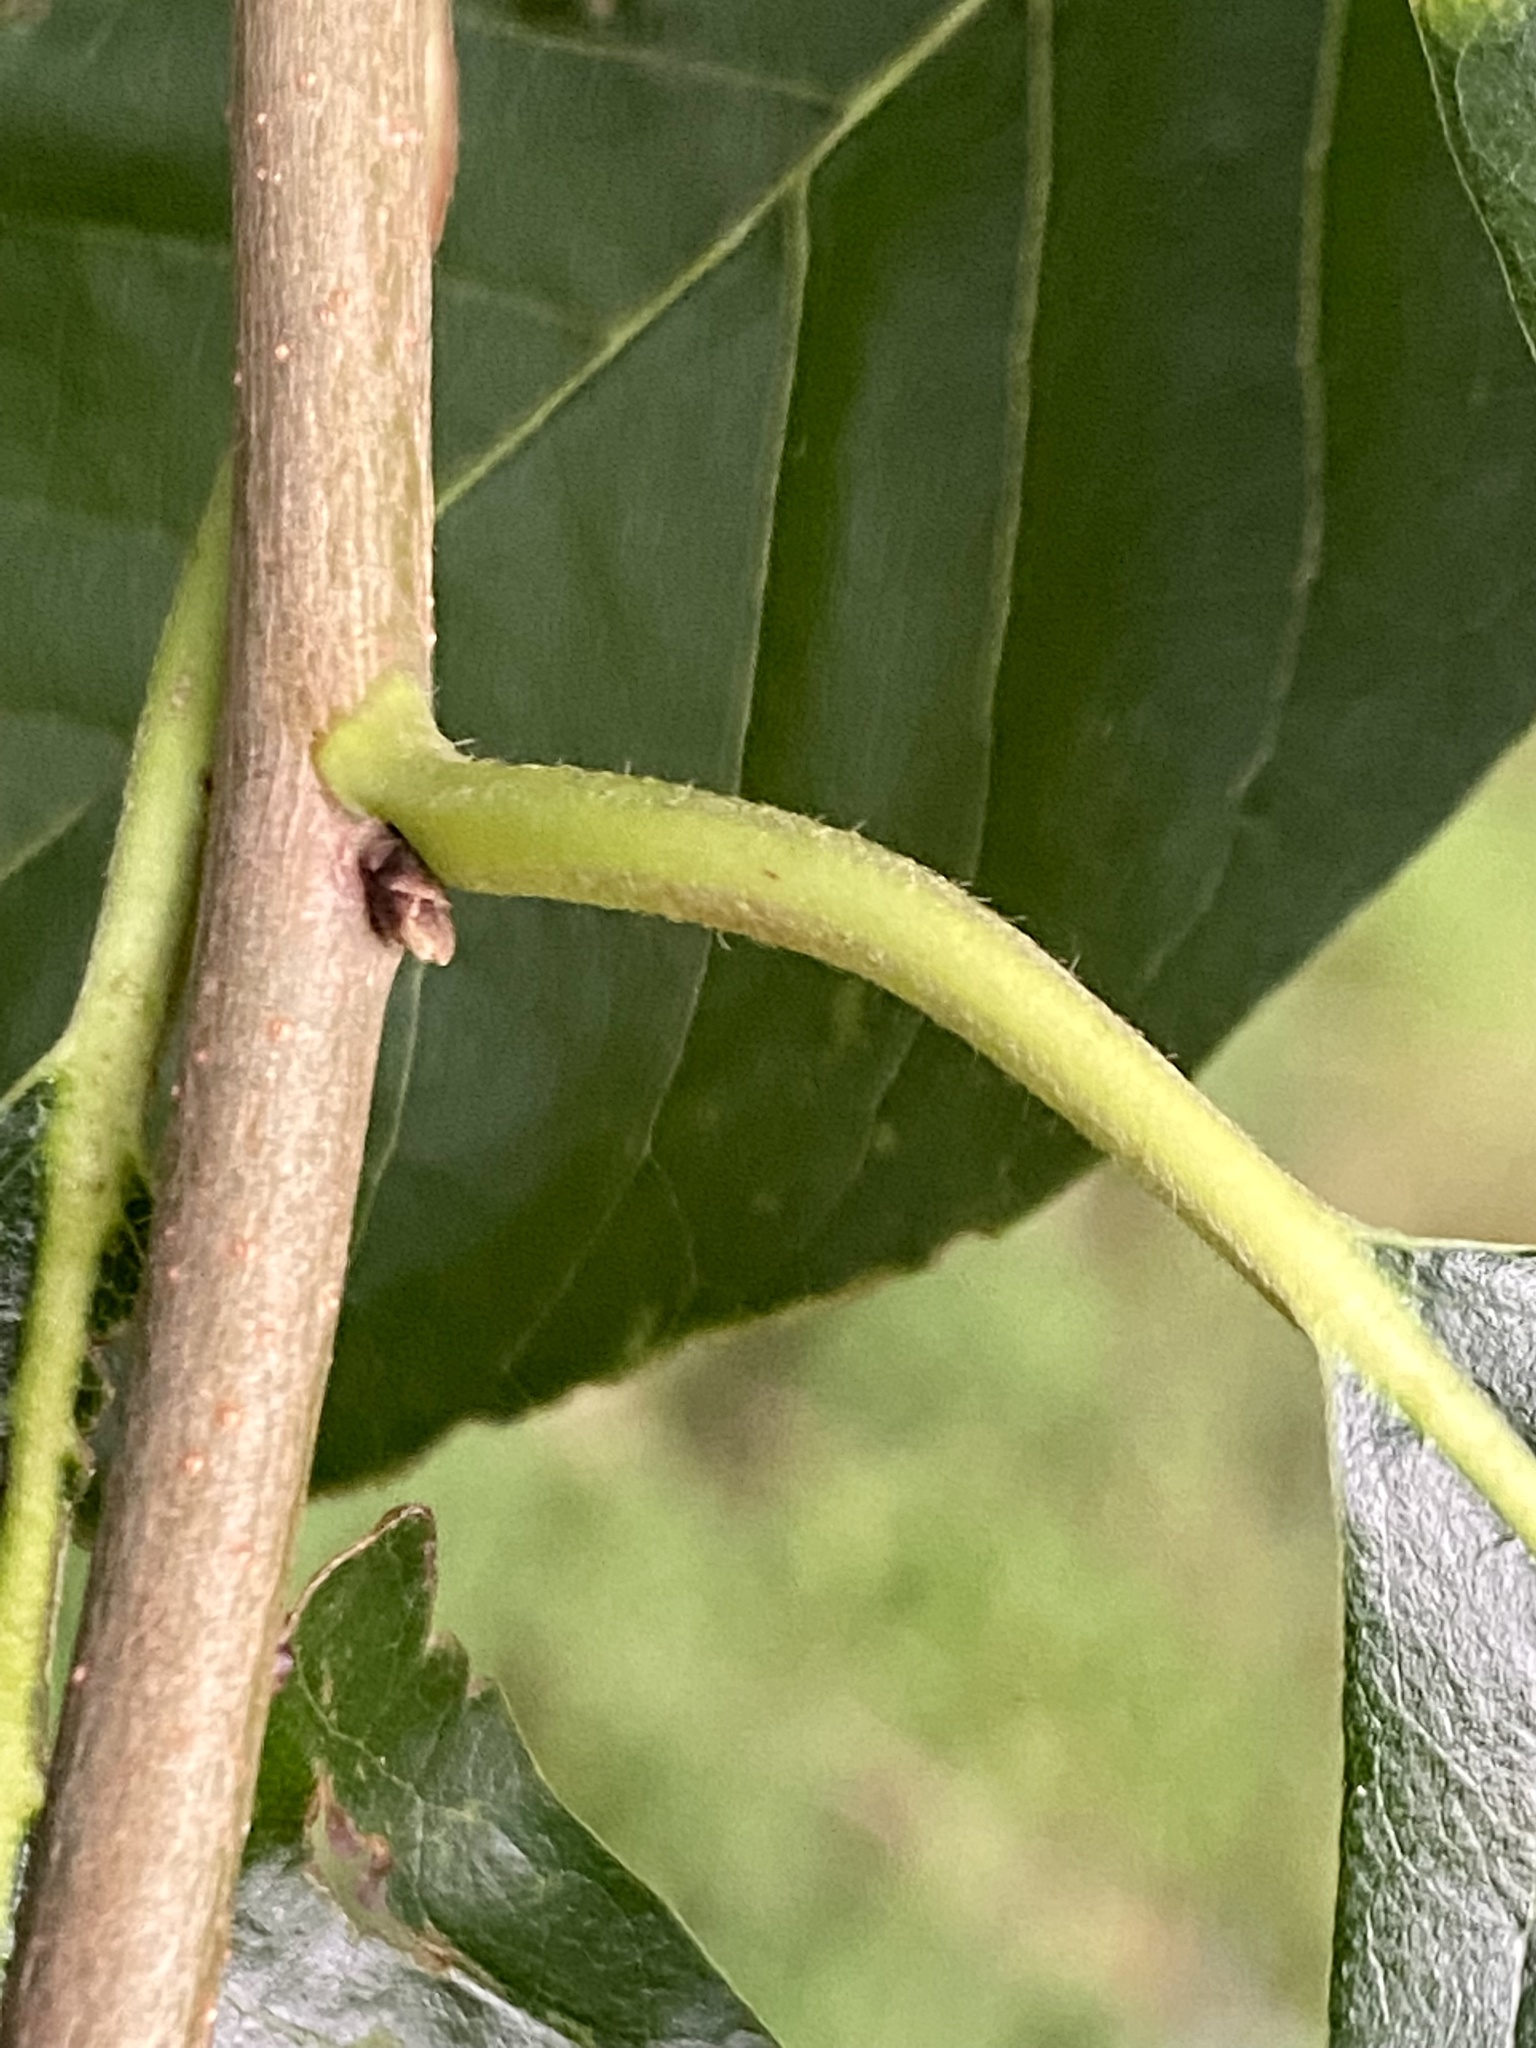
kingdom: Plantae
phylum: Tracheophyta
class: Magnoliopsida
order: Cornales
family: Nyssaceae
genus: Nyssa
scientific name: Nyssa sylvatica
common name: Black tupelo
